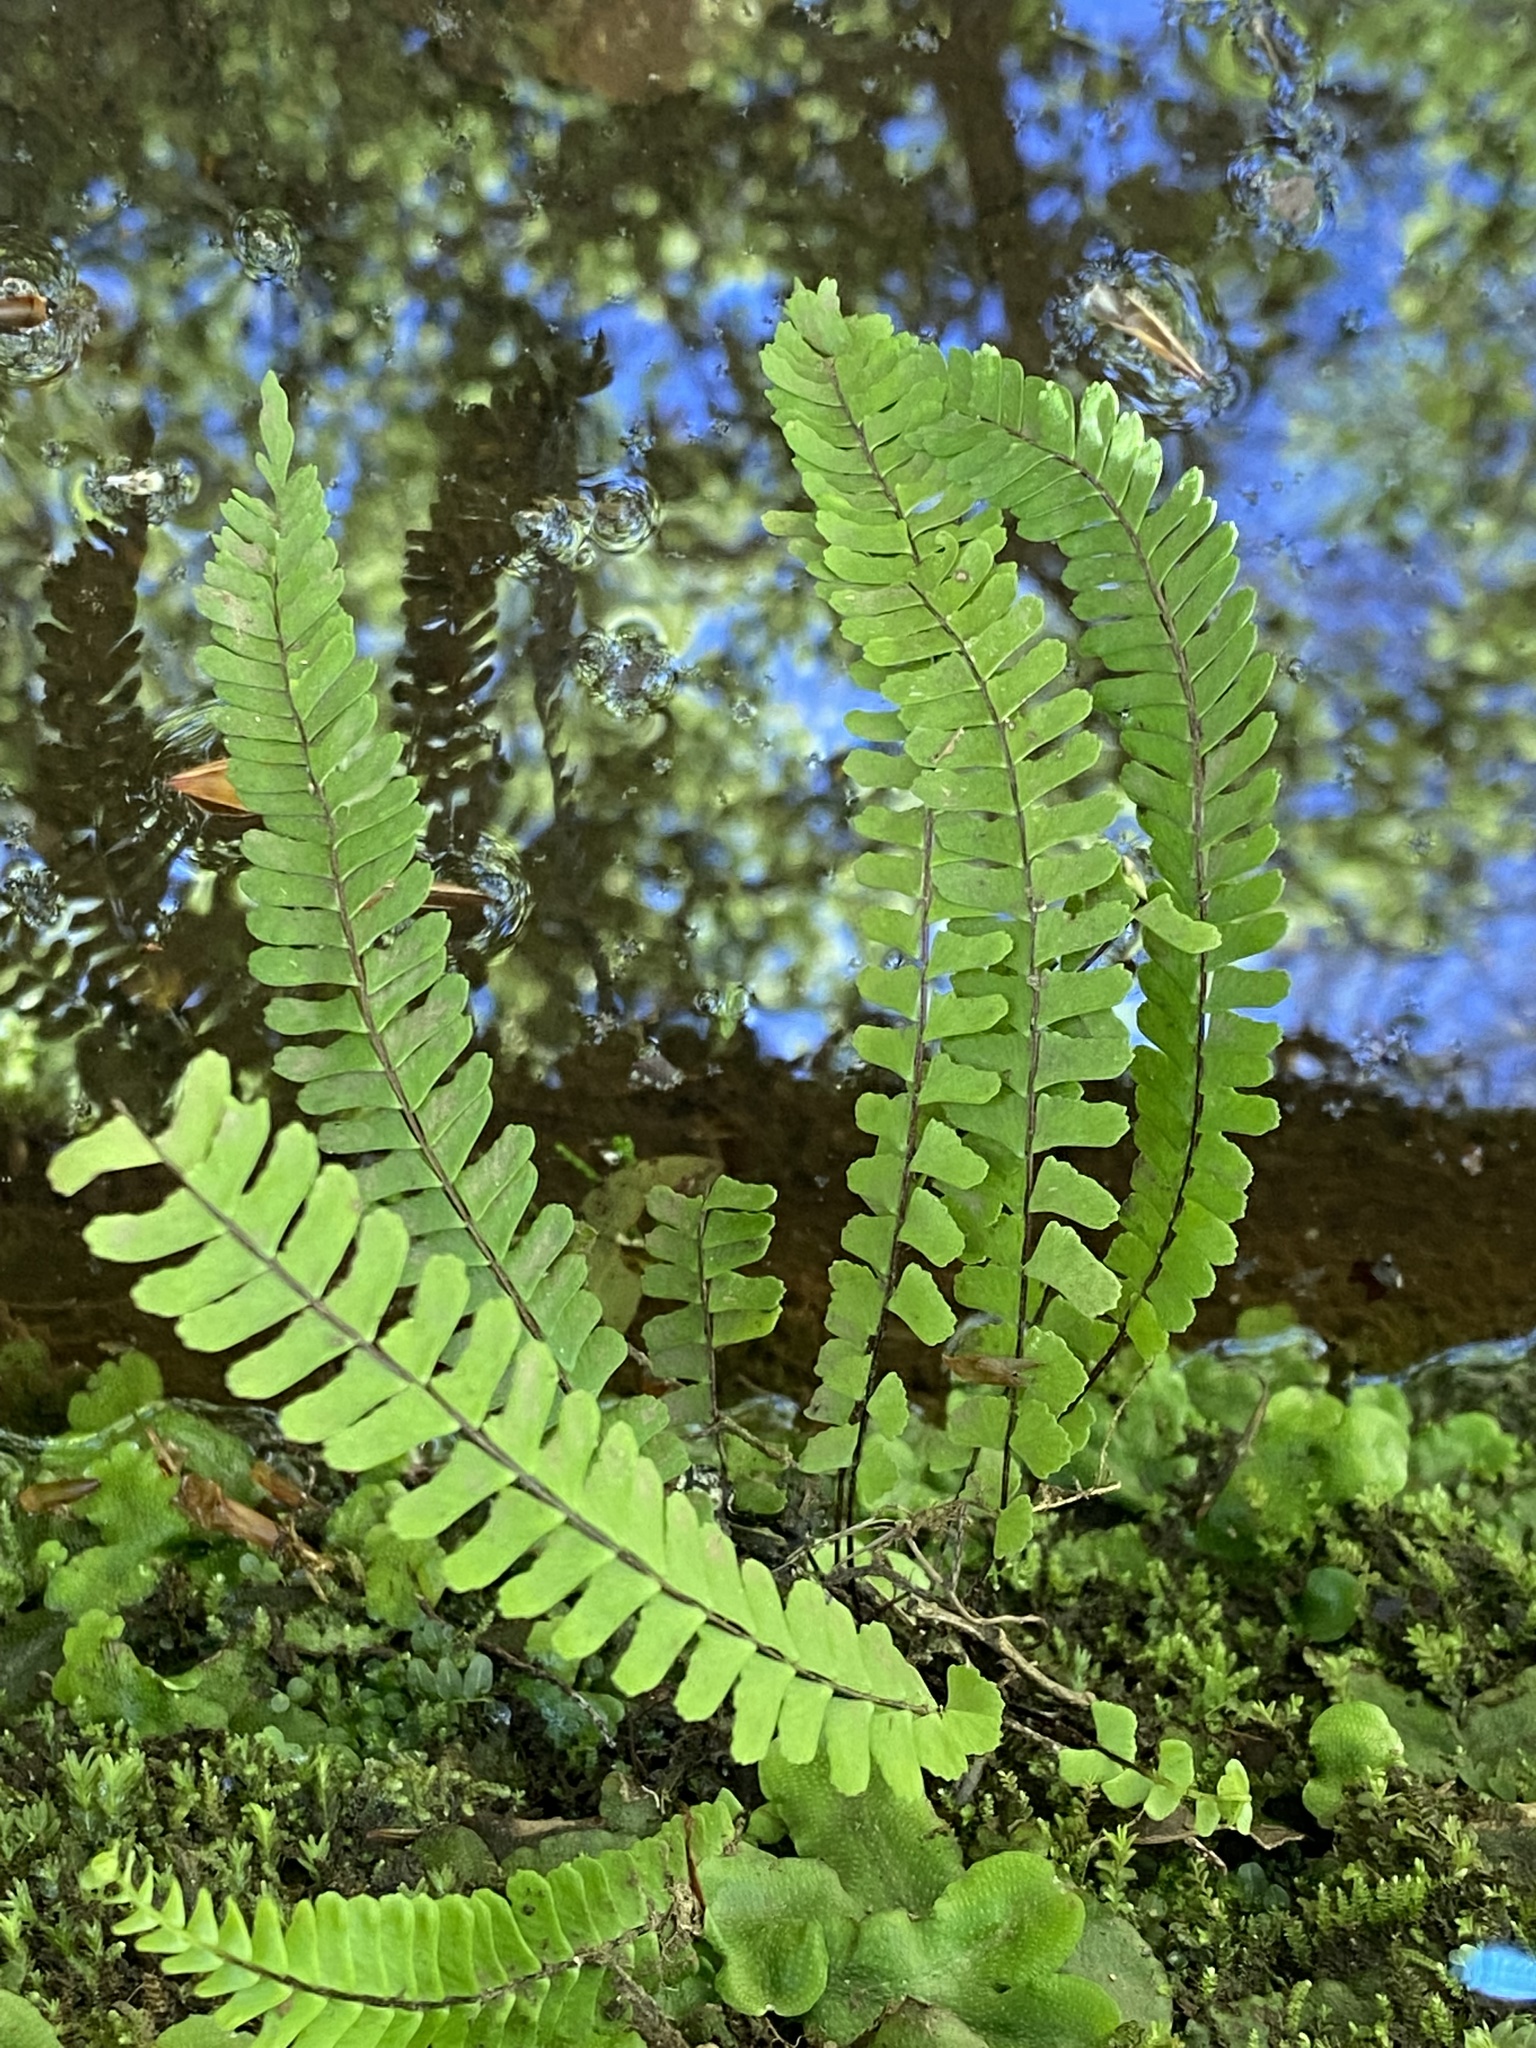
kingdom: Plantae
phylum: Tracheophyta
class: Polypodiopsida
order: Polypodiales
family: Aspleniaceae
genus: Asplenium
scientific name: Asplenium monanthes
